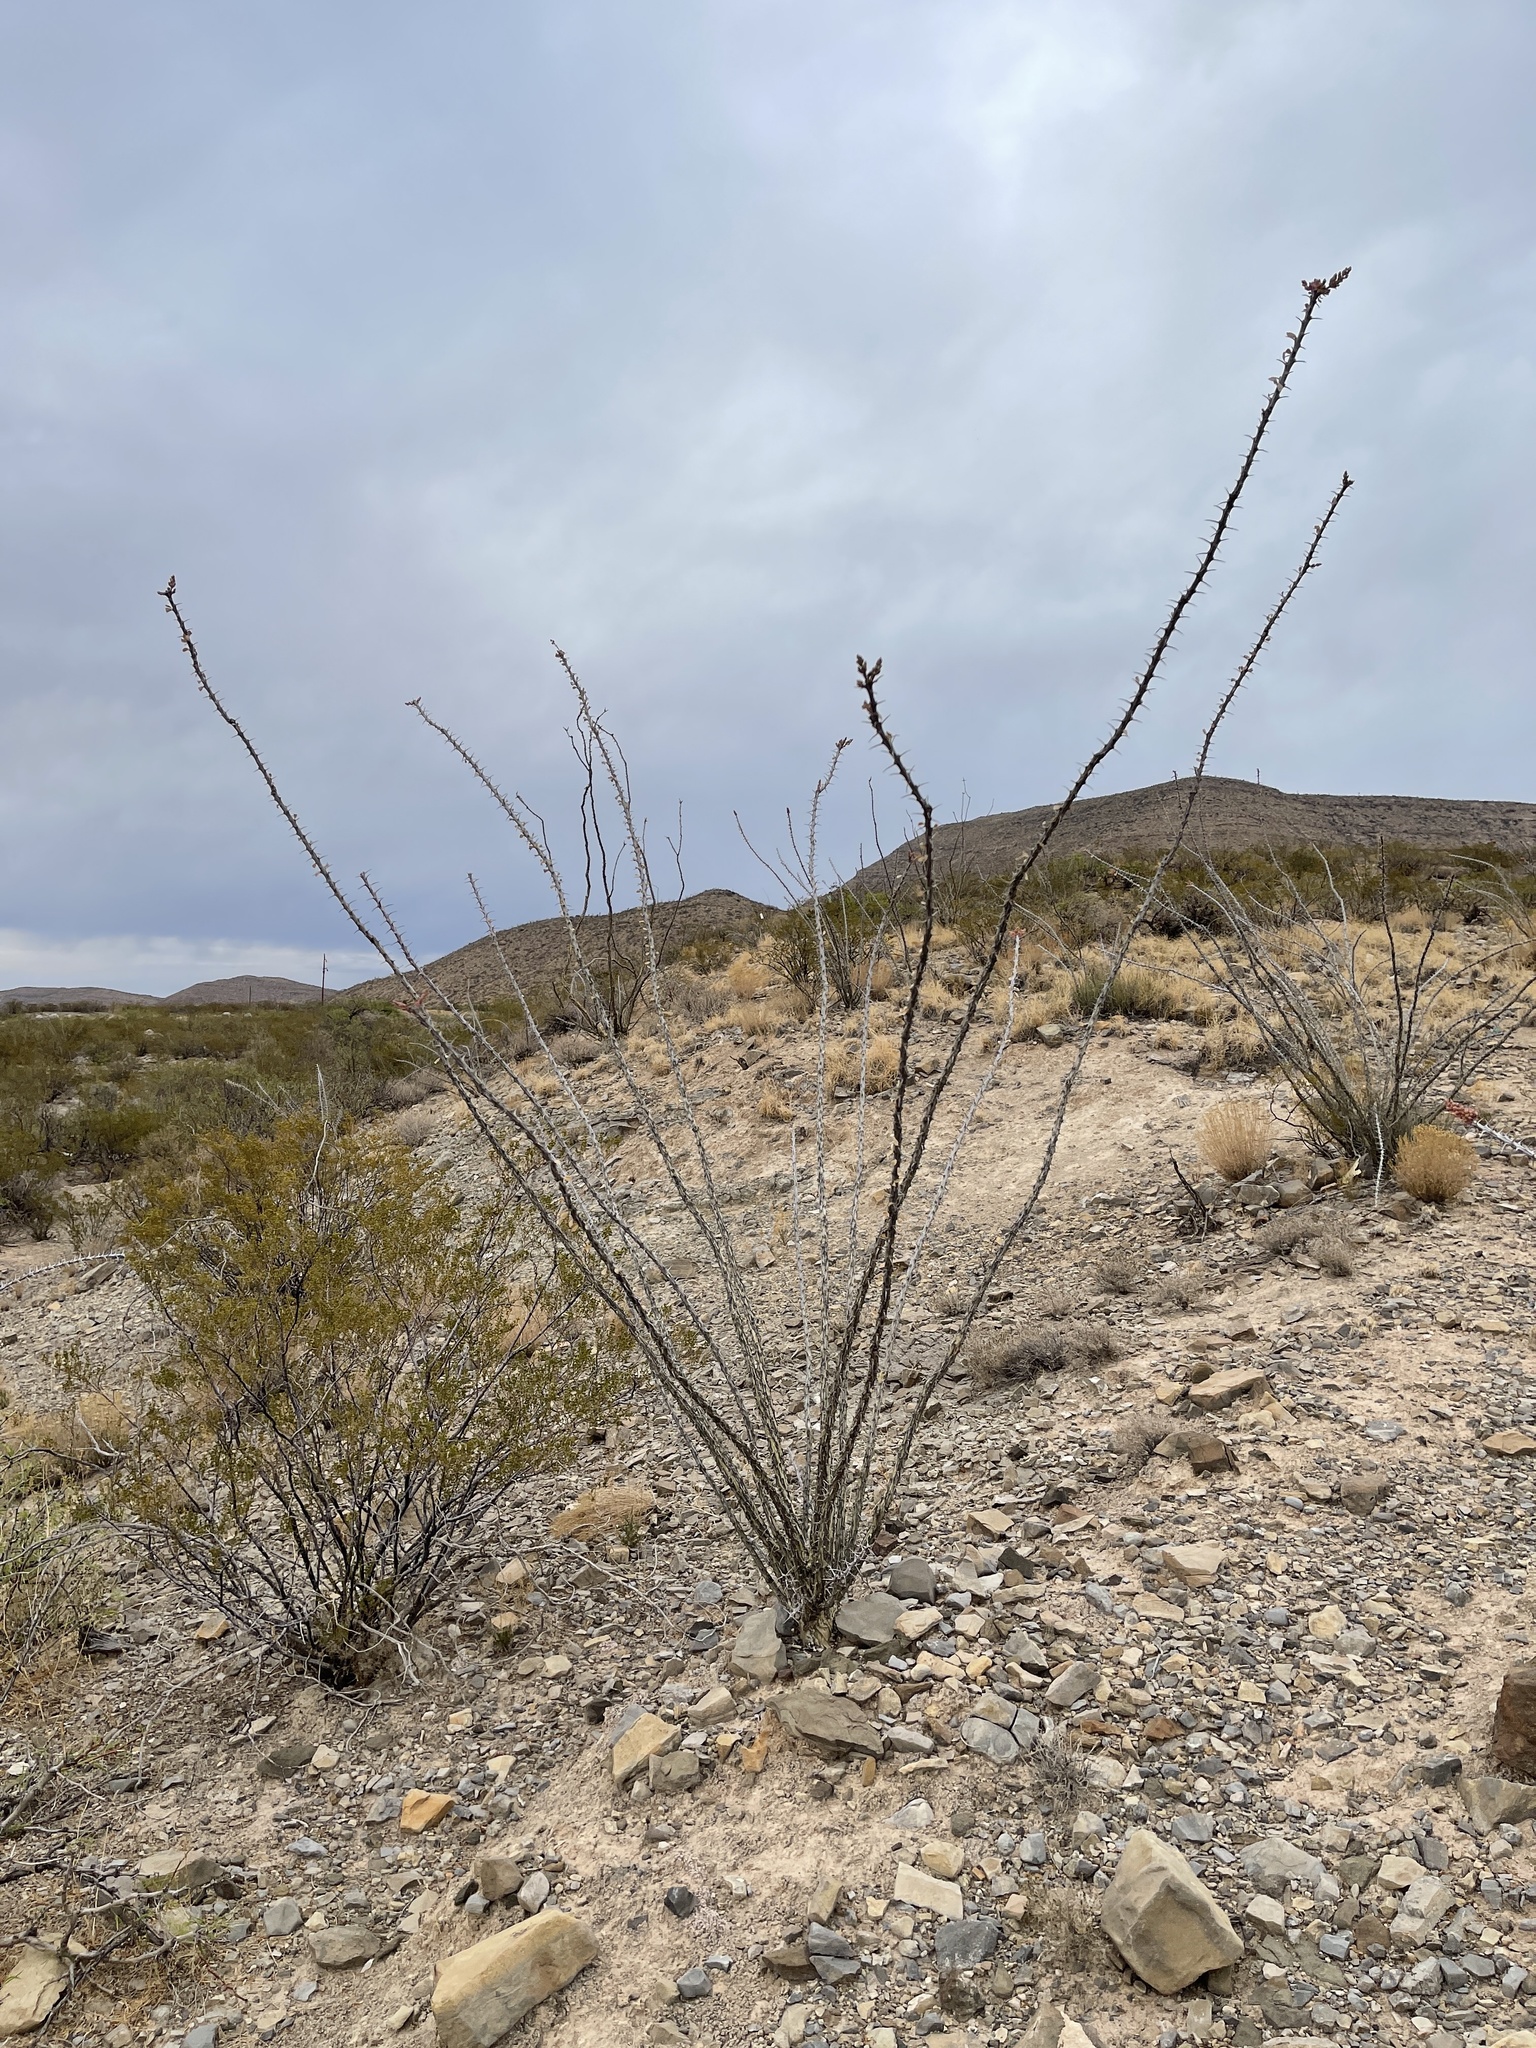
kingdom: Plantae
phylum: Tracheophyta
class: Magnoliopsida
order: Ericales
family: Fouquieriaceae
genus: Fouquieria
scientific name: Fouquieria splendens
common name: Vine-cactus
